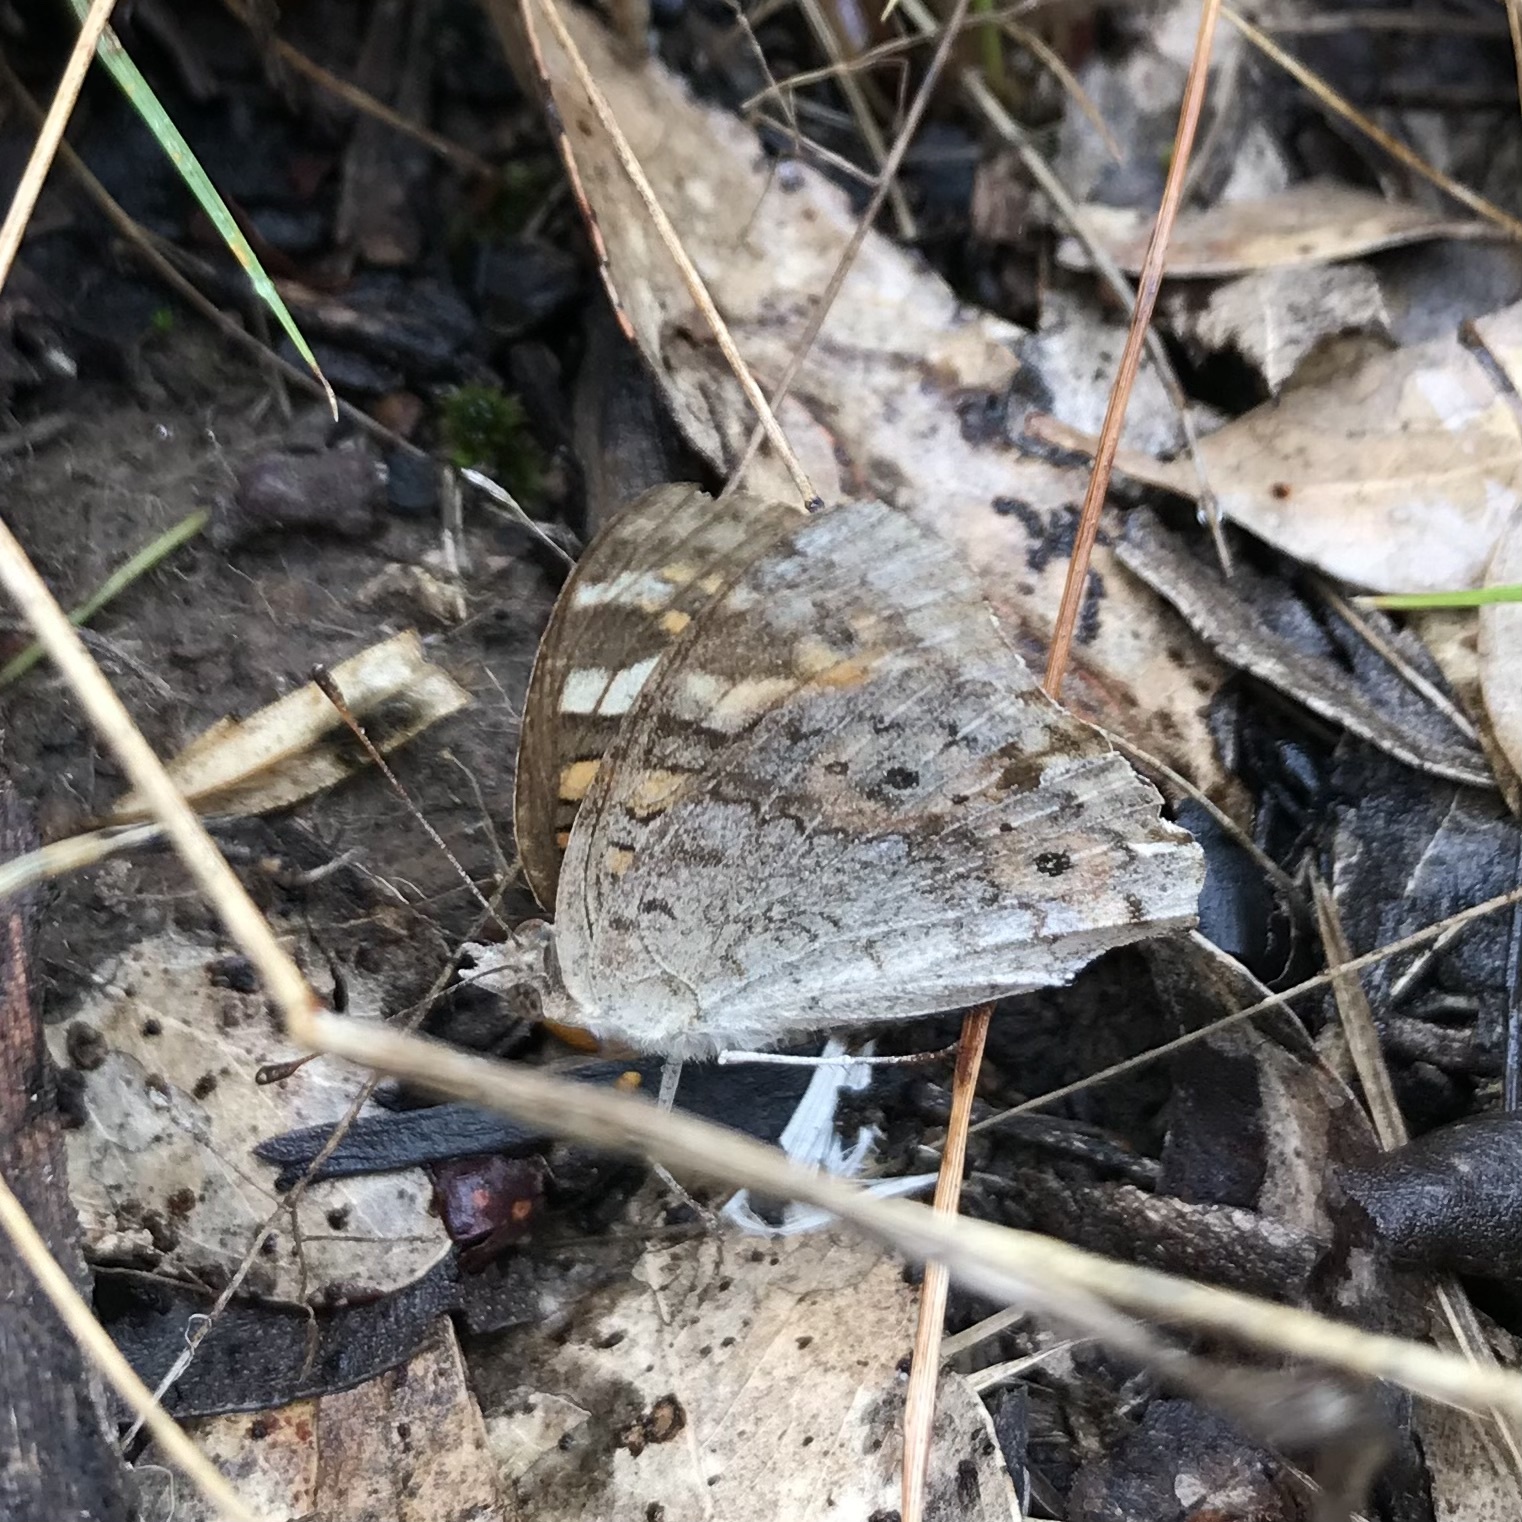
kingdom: Animalia
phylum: Arthropoda
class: Insecta
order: Lepidoptera
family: Nymphalidae
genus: Junonia
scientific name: Junonia villida
